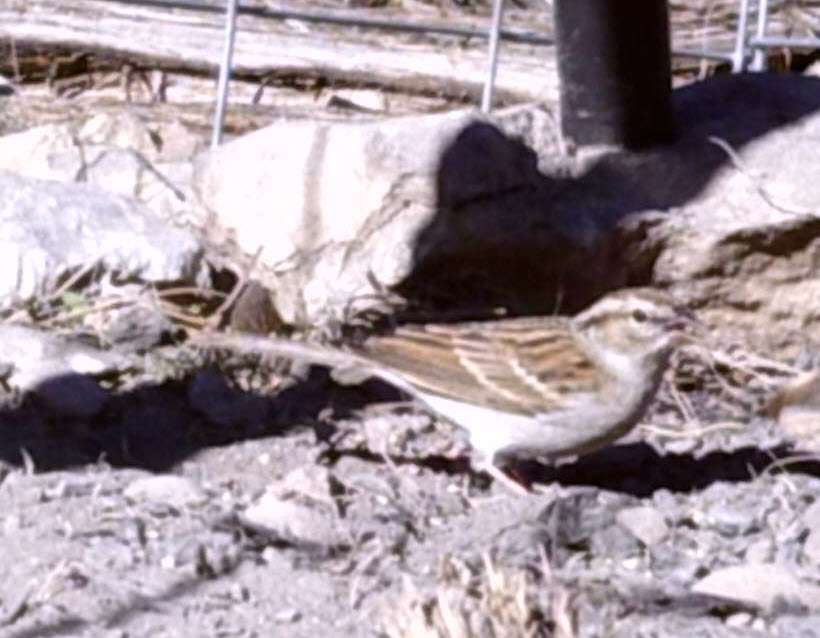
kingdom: Animalia
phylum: Chordata
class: Aves
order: Passeriformes
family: Passerellidae
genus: Spizella
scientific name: Spizella passerina
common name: Chipping sparrow
